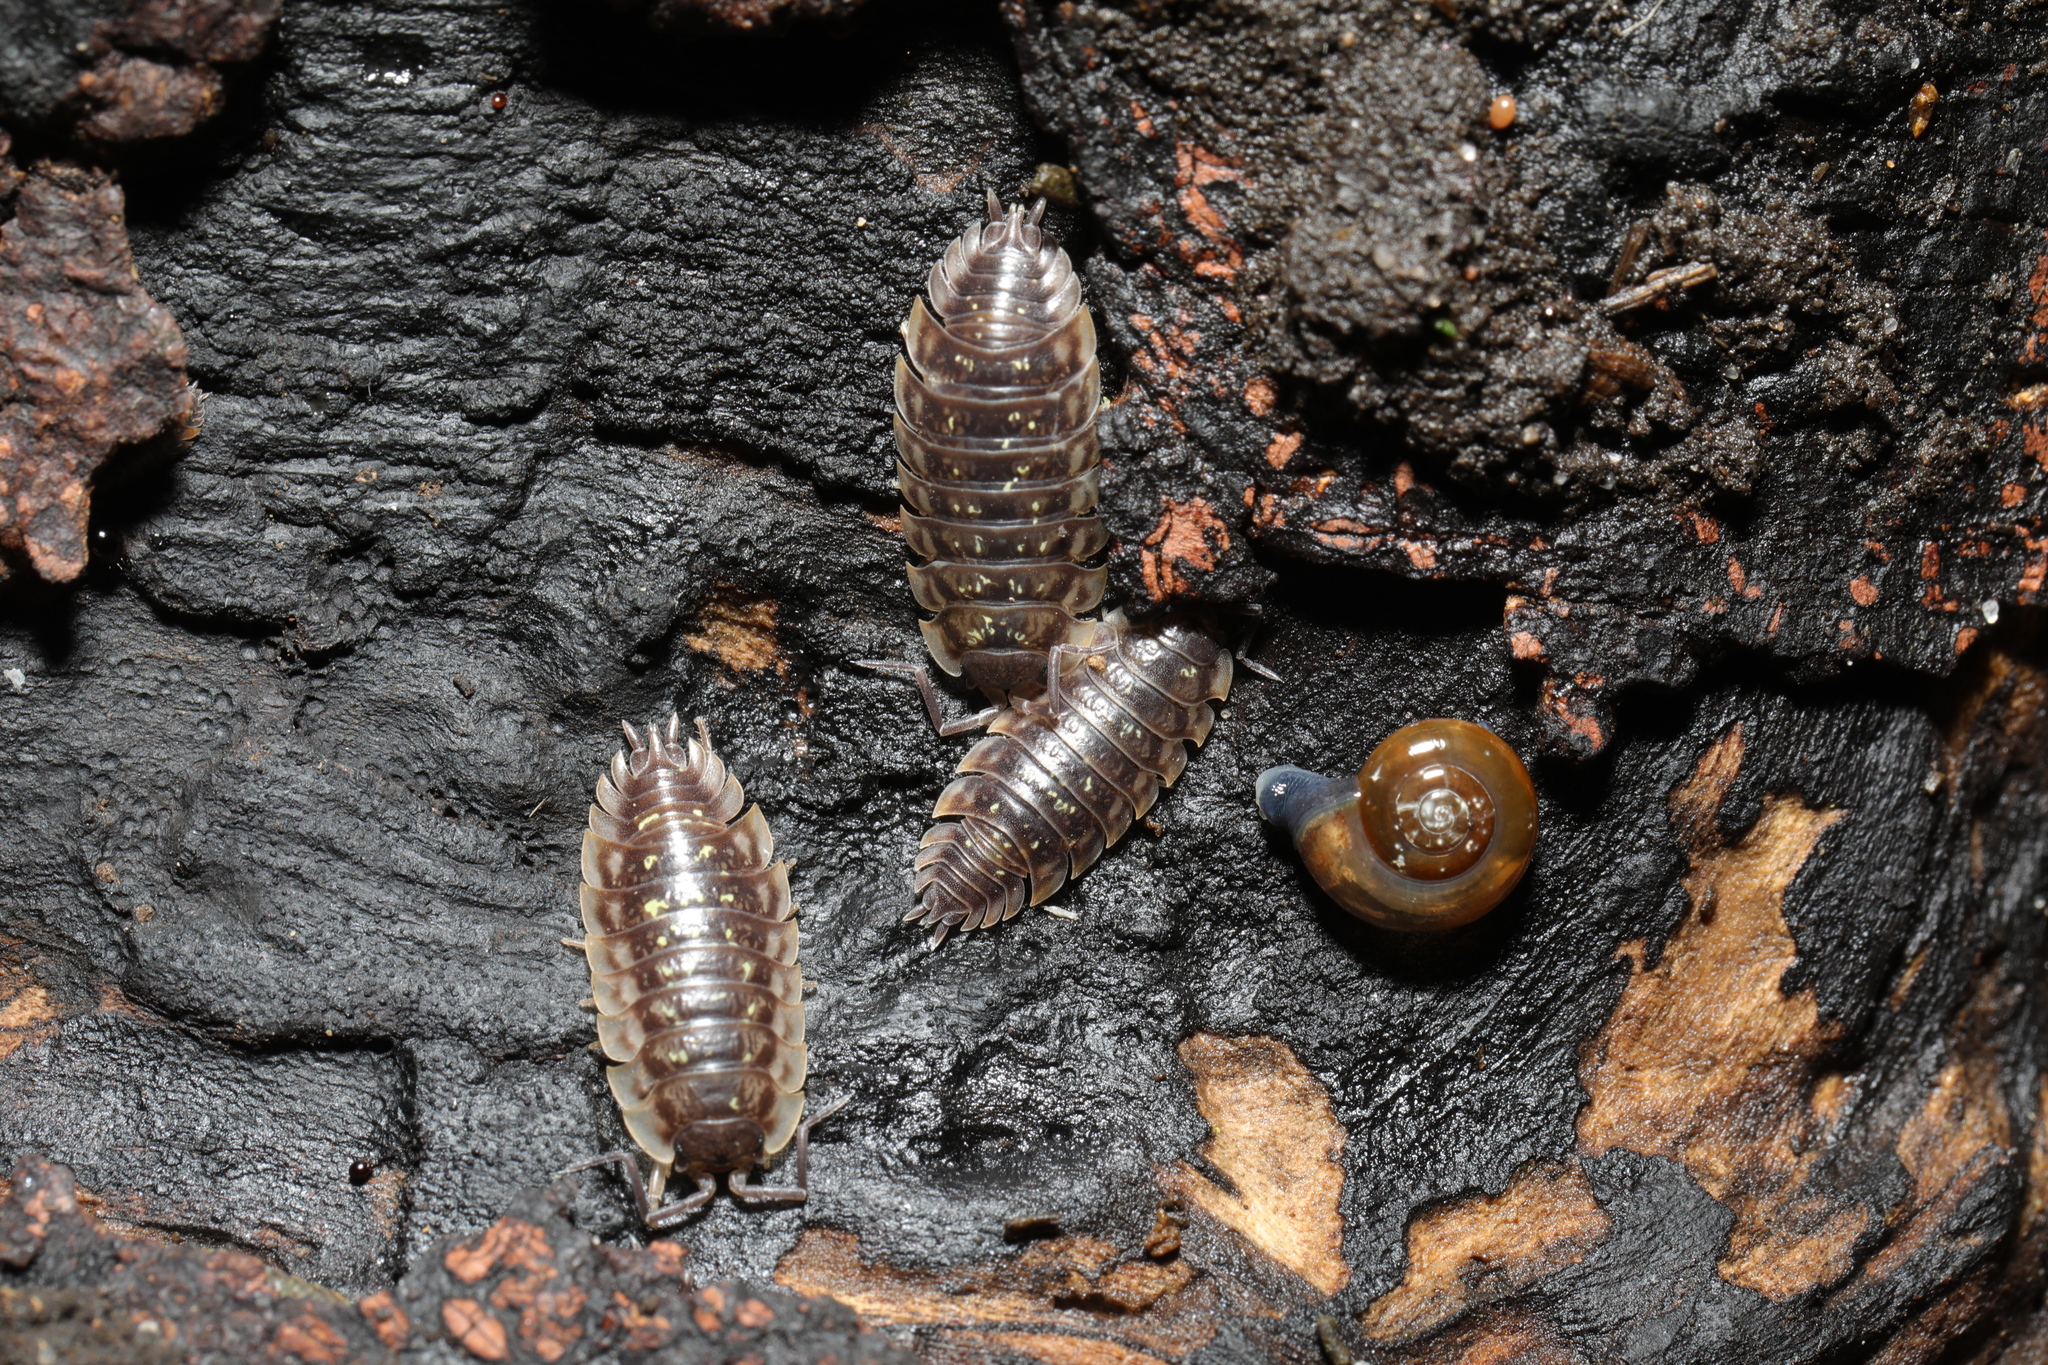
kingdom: Animalia
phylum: Arthropoda
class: Malacostraca
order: Isopoda
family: Oniscidae
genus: Oniscus
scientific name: Oniscus asellus
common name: Common shiny woodlouse
